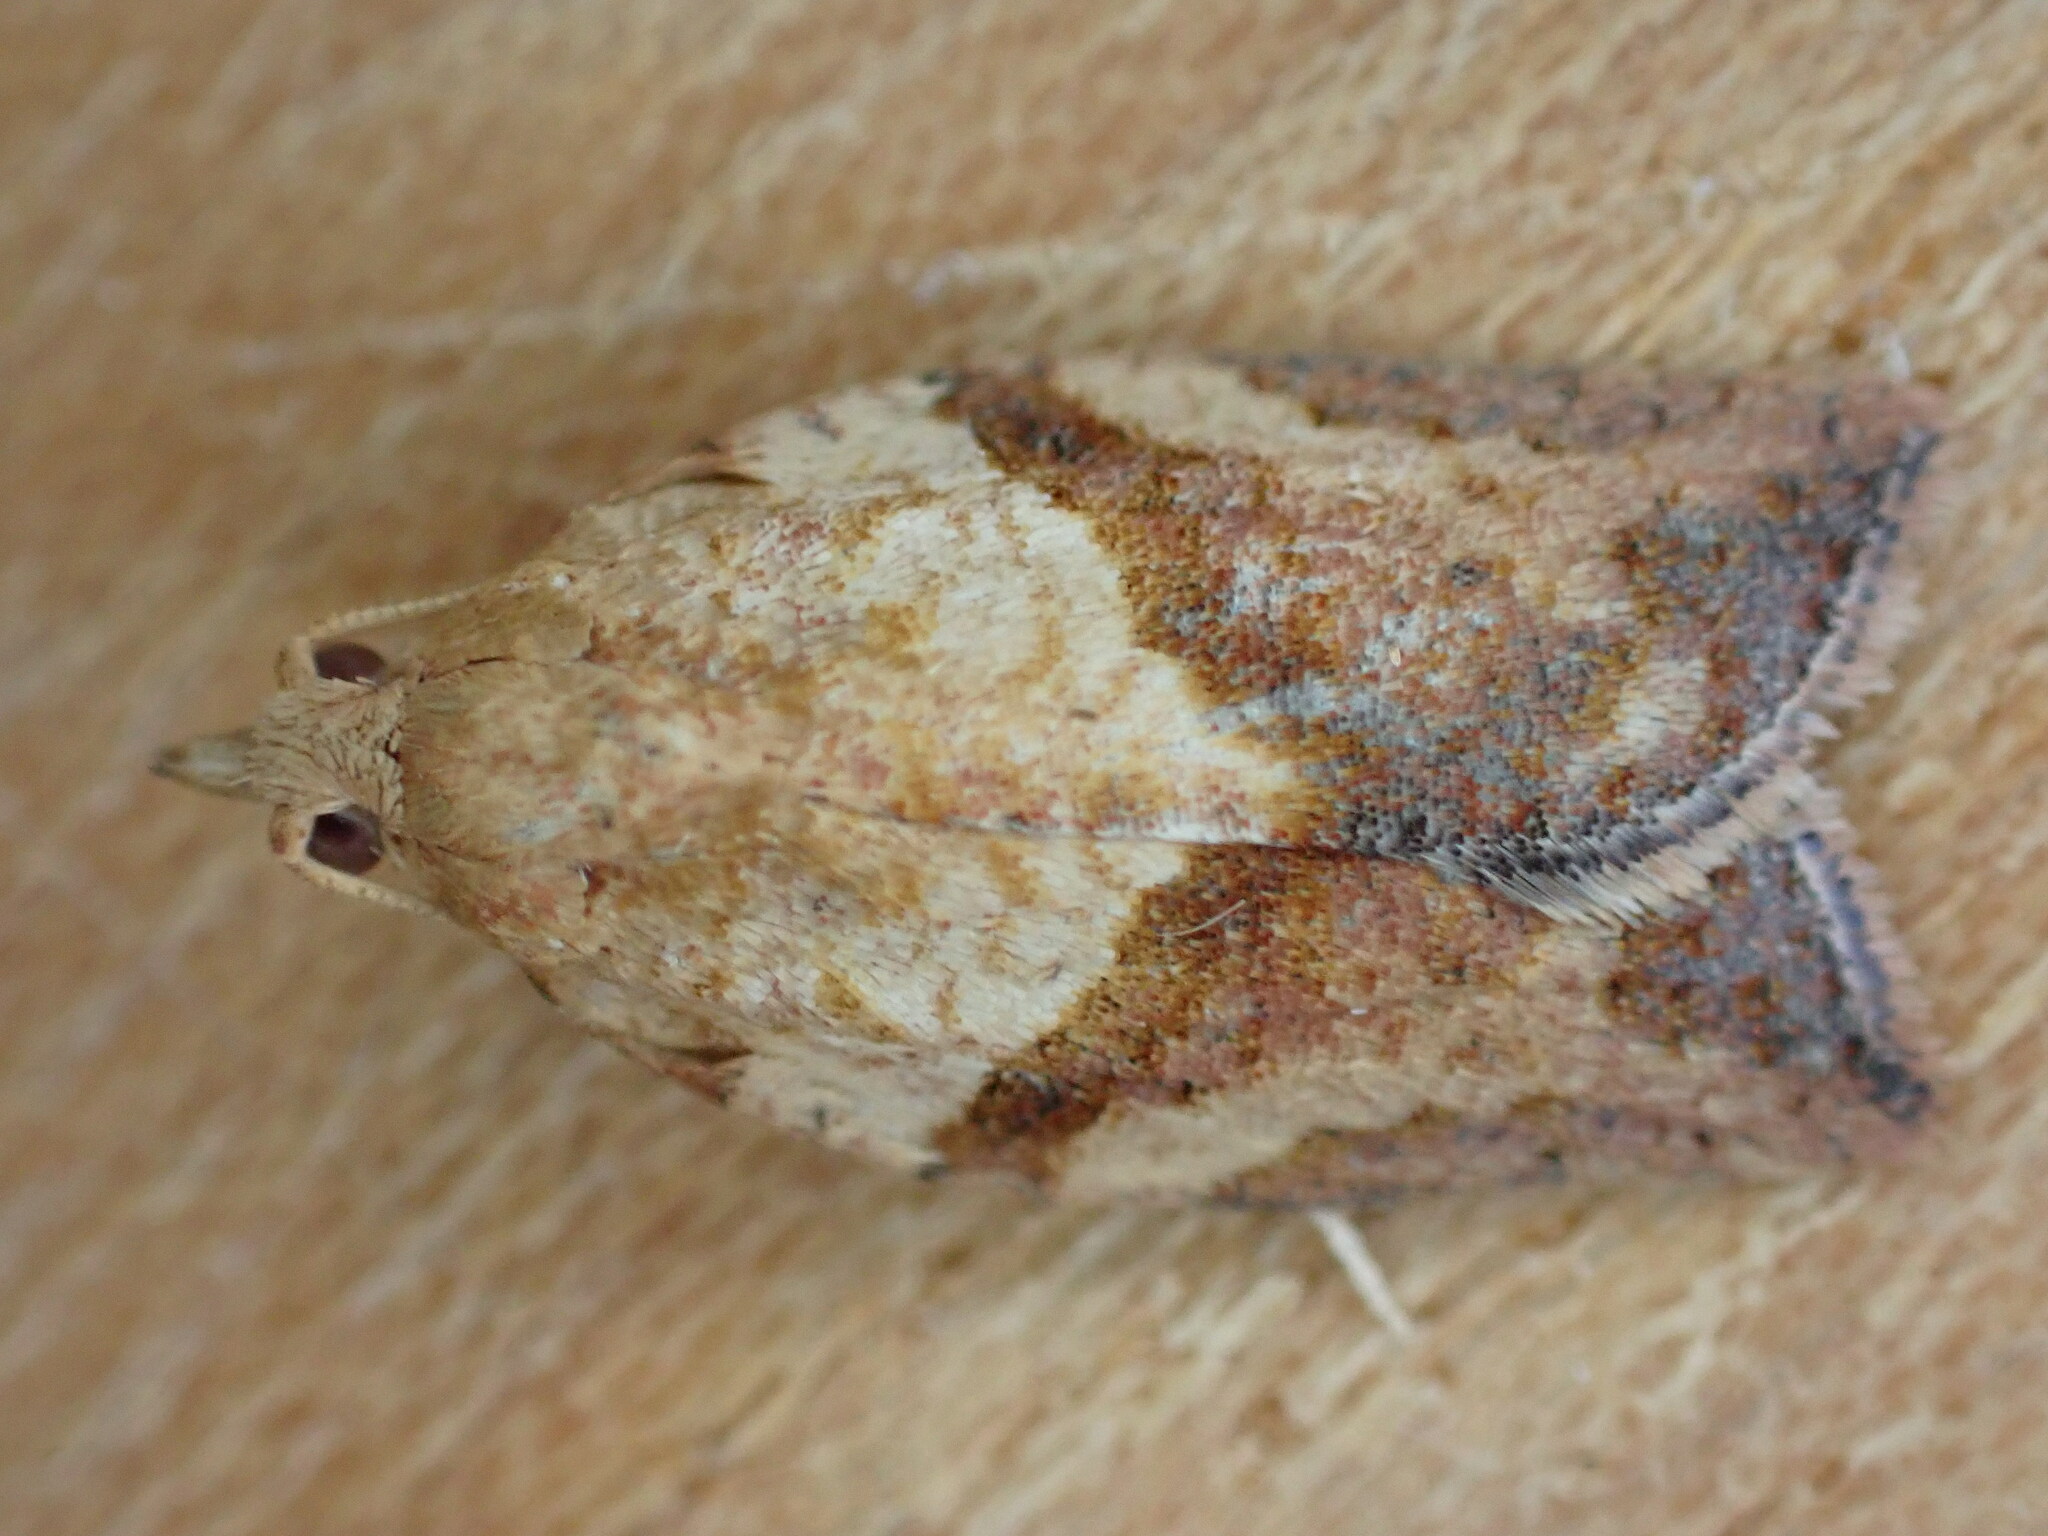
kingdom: Animalia
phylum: Arthropoda
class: Insecta
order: Lepidoptera
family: Tortricidae
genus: Epiphyas
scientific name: Epiphyas postvittana
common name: Light brown apple moth
